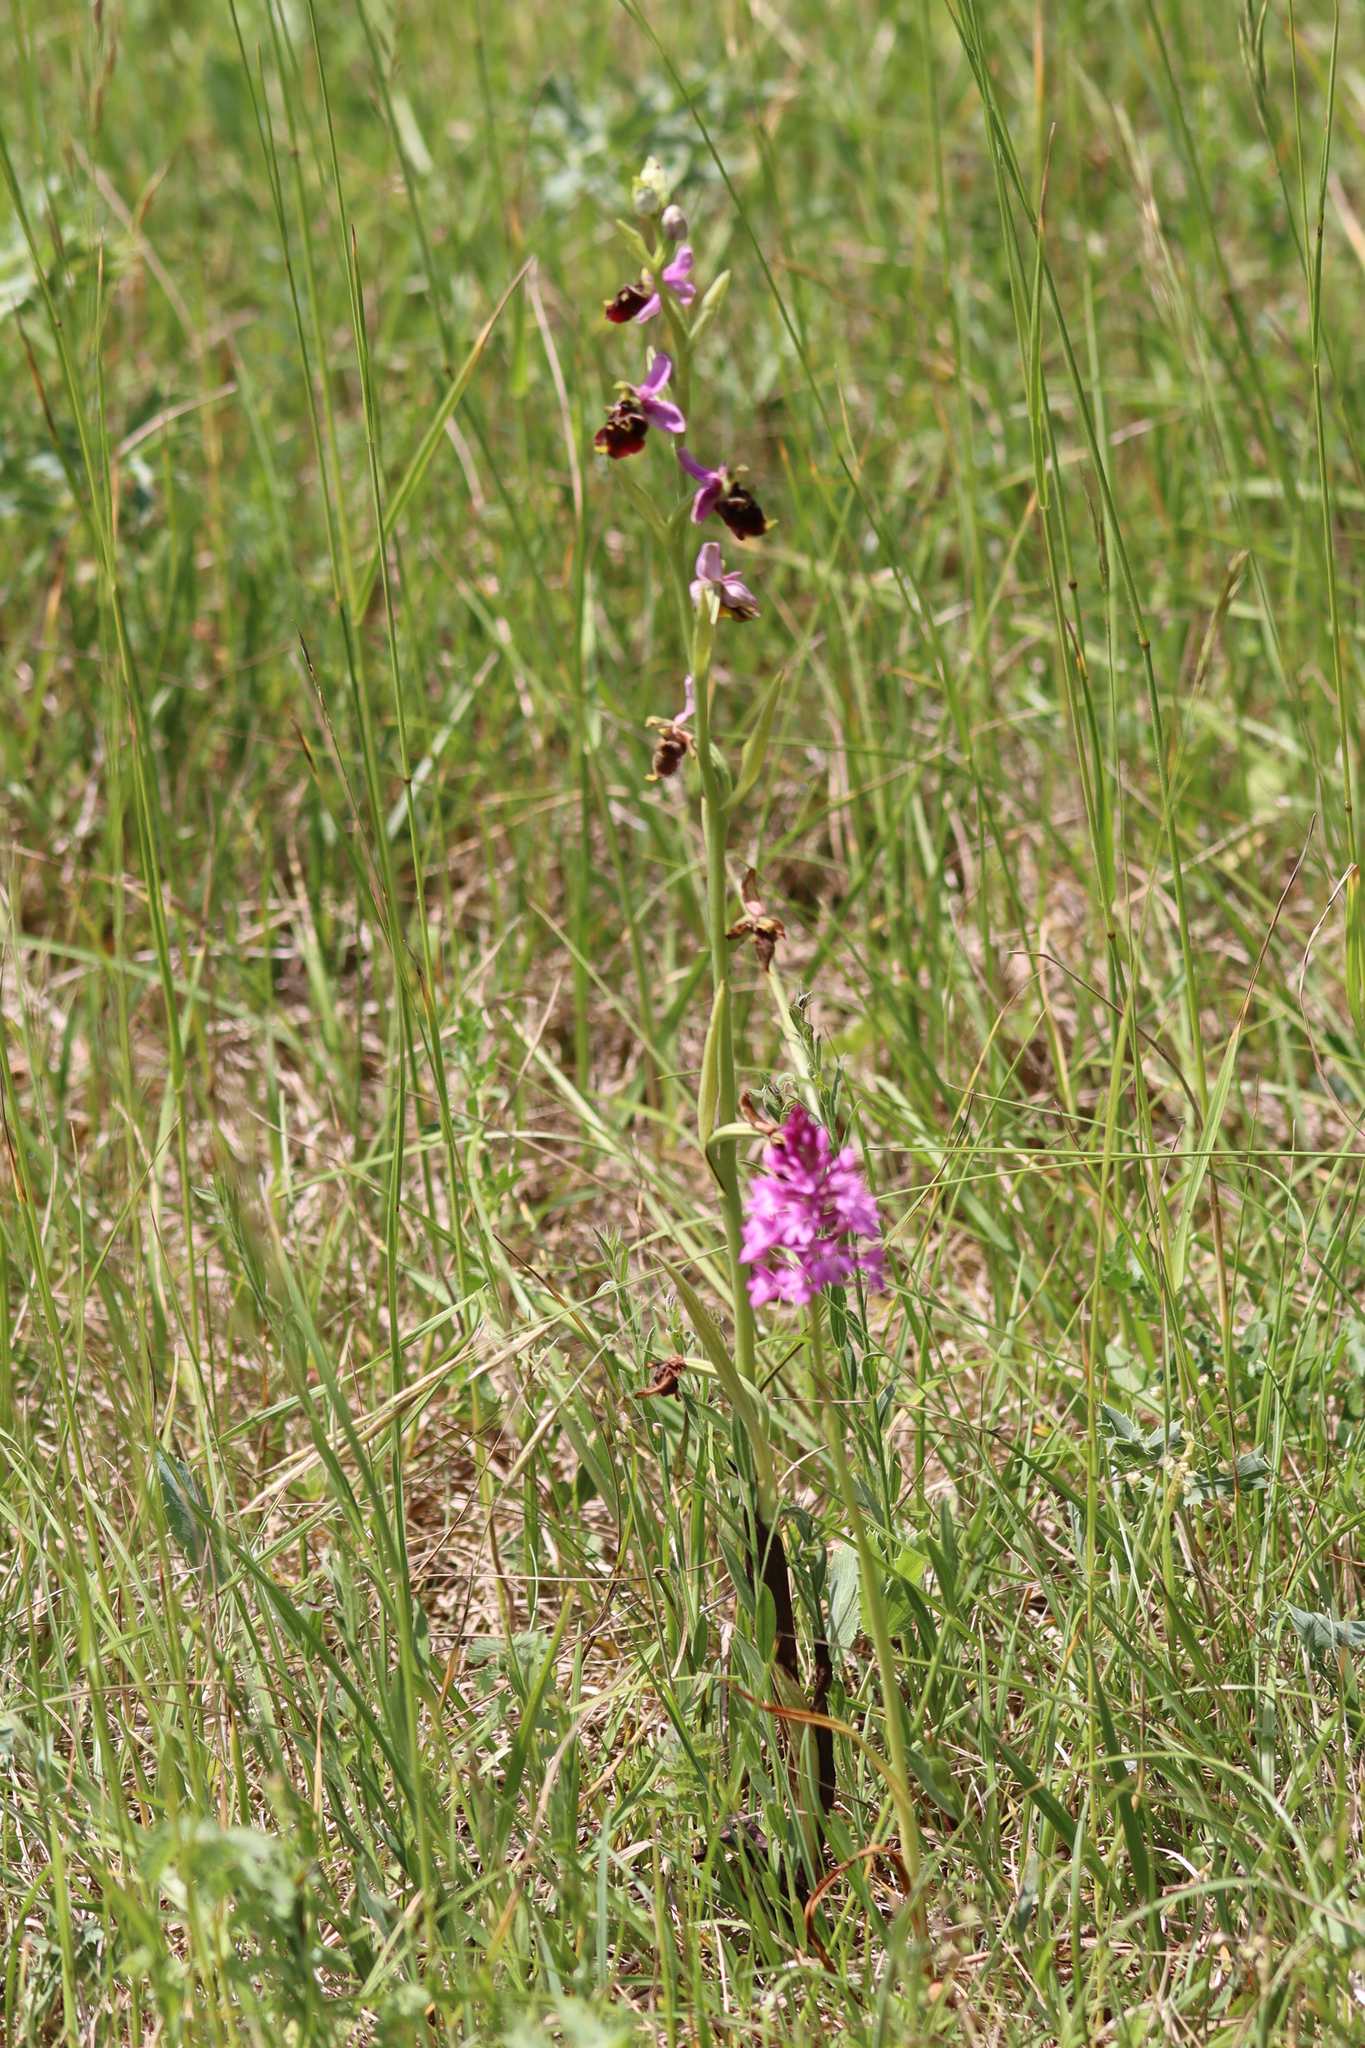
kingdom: Plantae
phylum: Tracheophyta
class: Liliopsida
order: Asparagales
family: Orchidaceae
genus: Ophrys
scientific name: Ophrys holosericea
